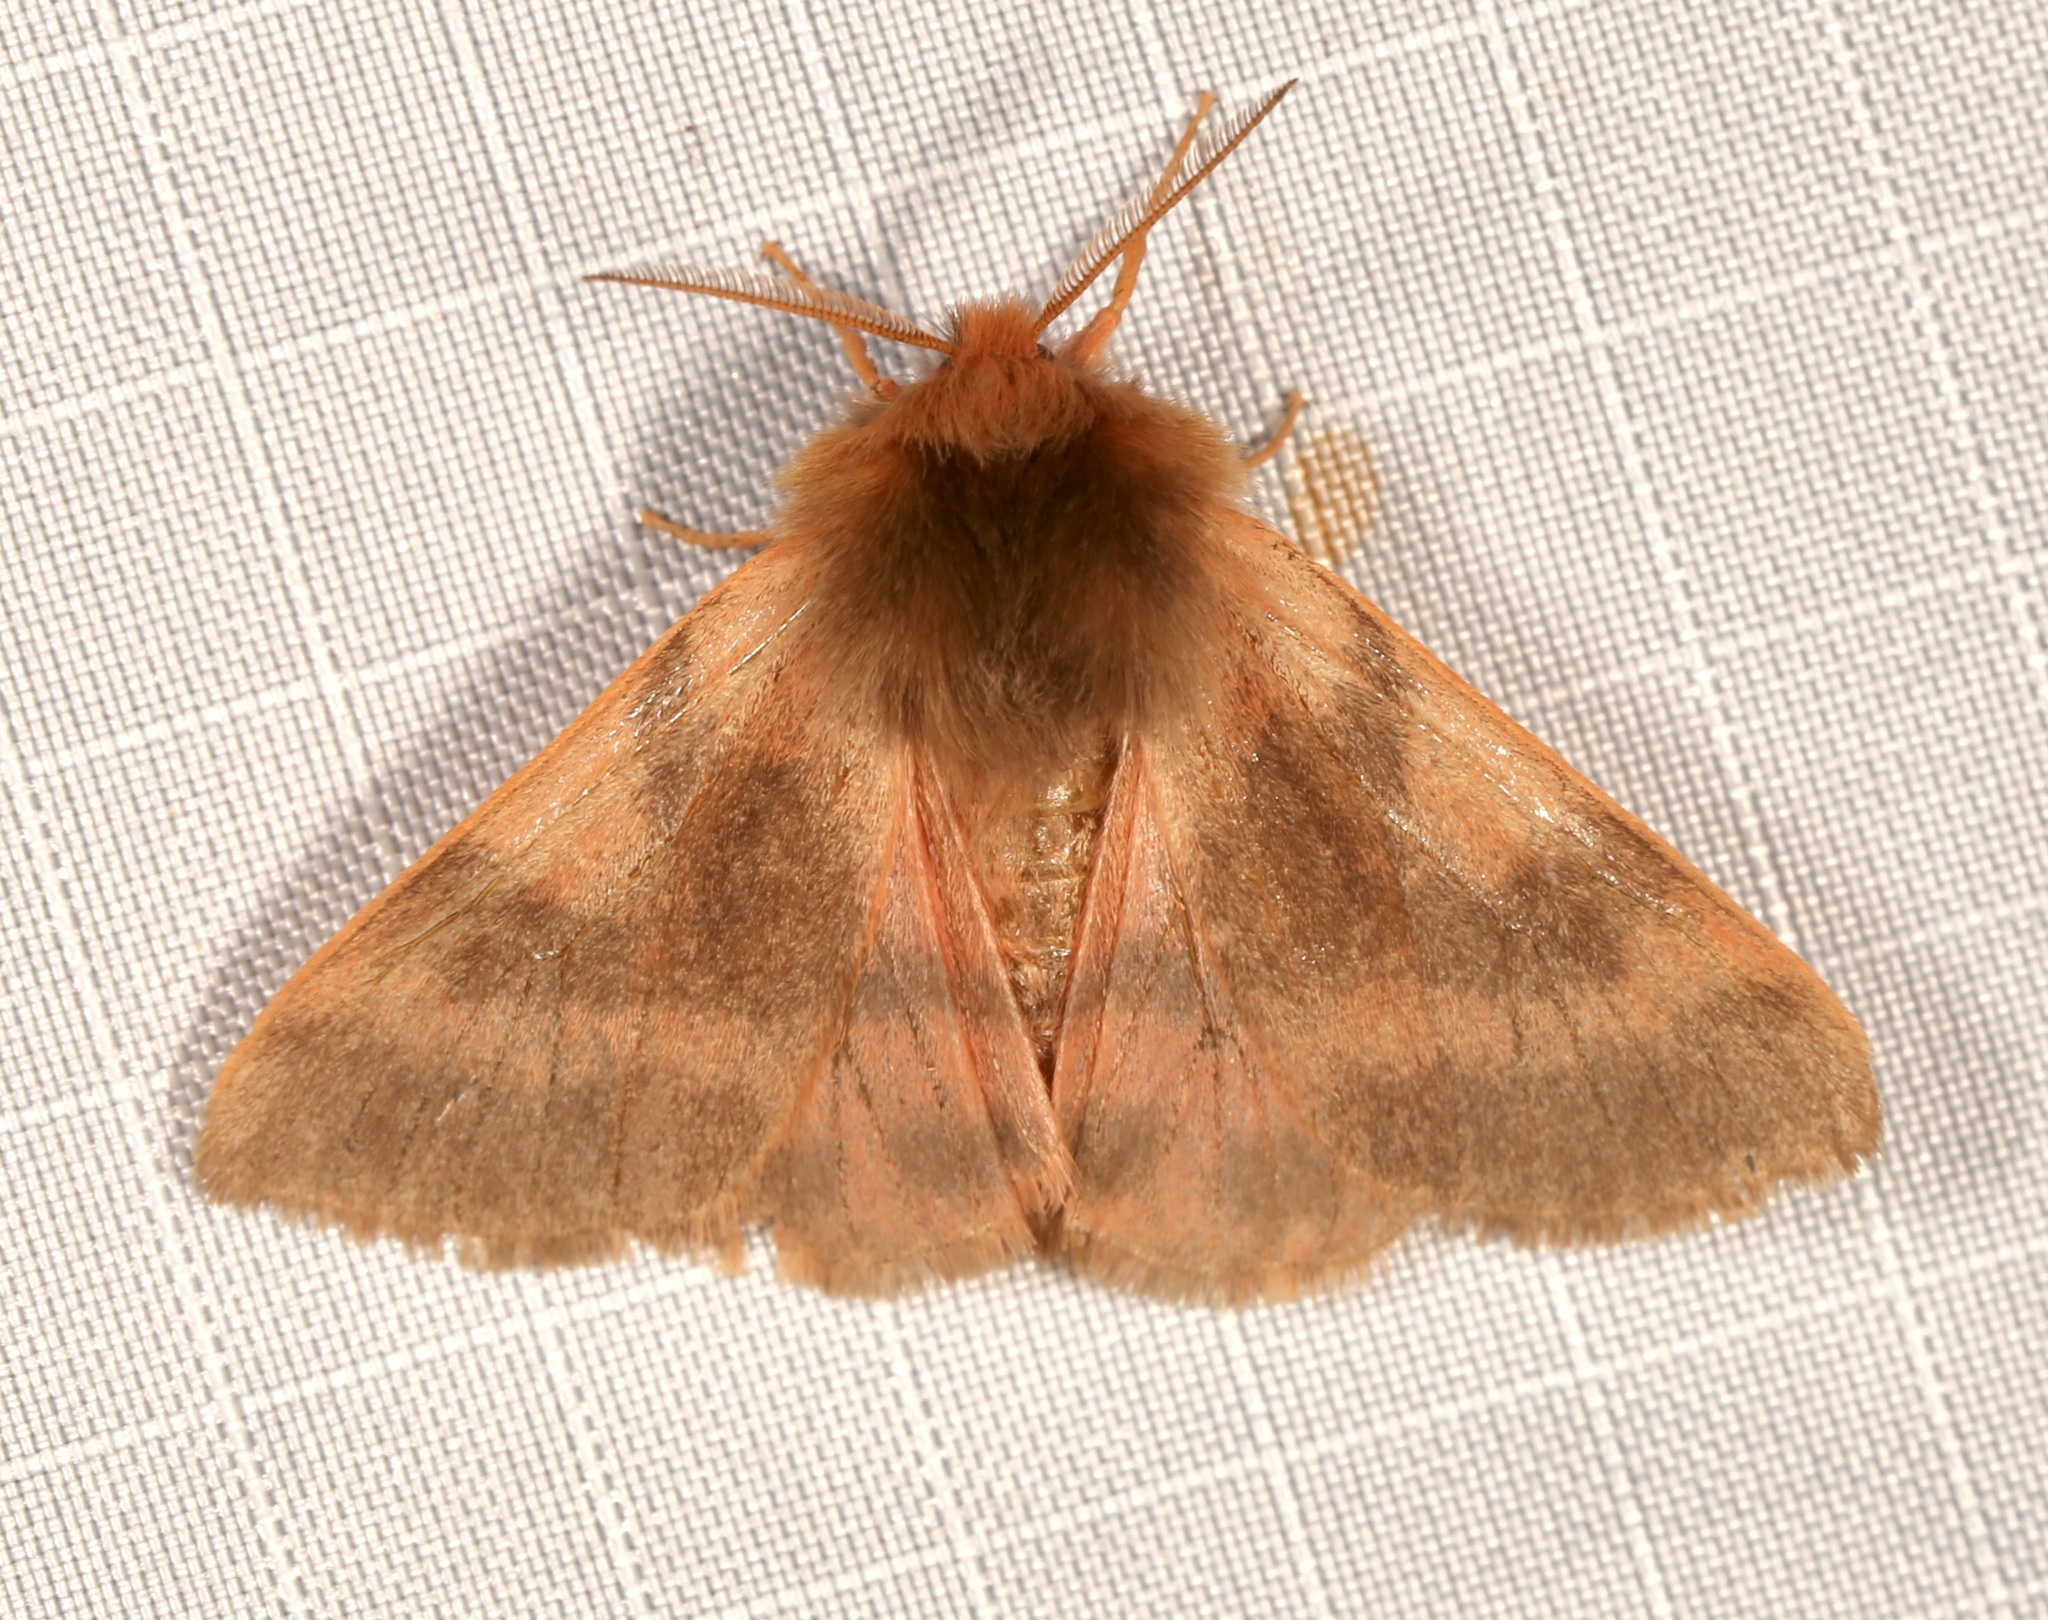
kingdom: Animalia
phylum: Arthropoda
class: Insecta
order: Lepidoptera
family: Erebidae
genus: Chelis
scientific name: Chelis beanii
